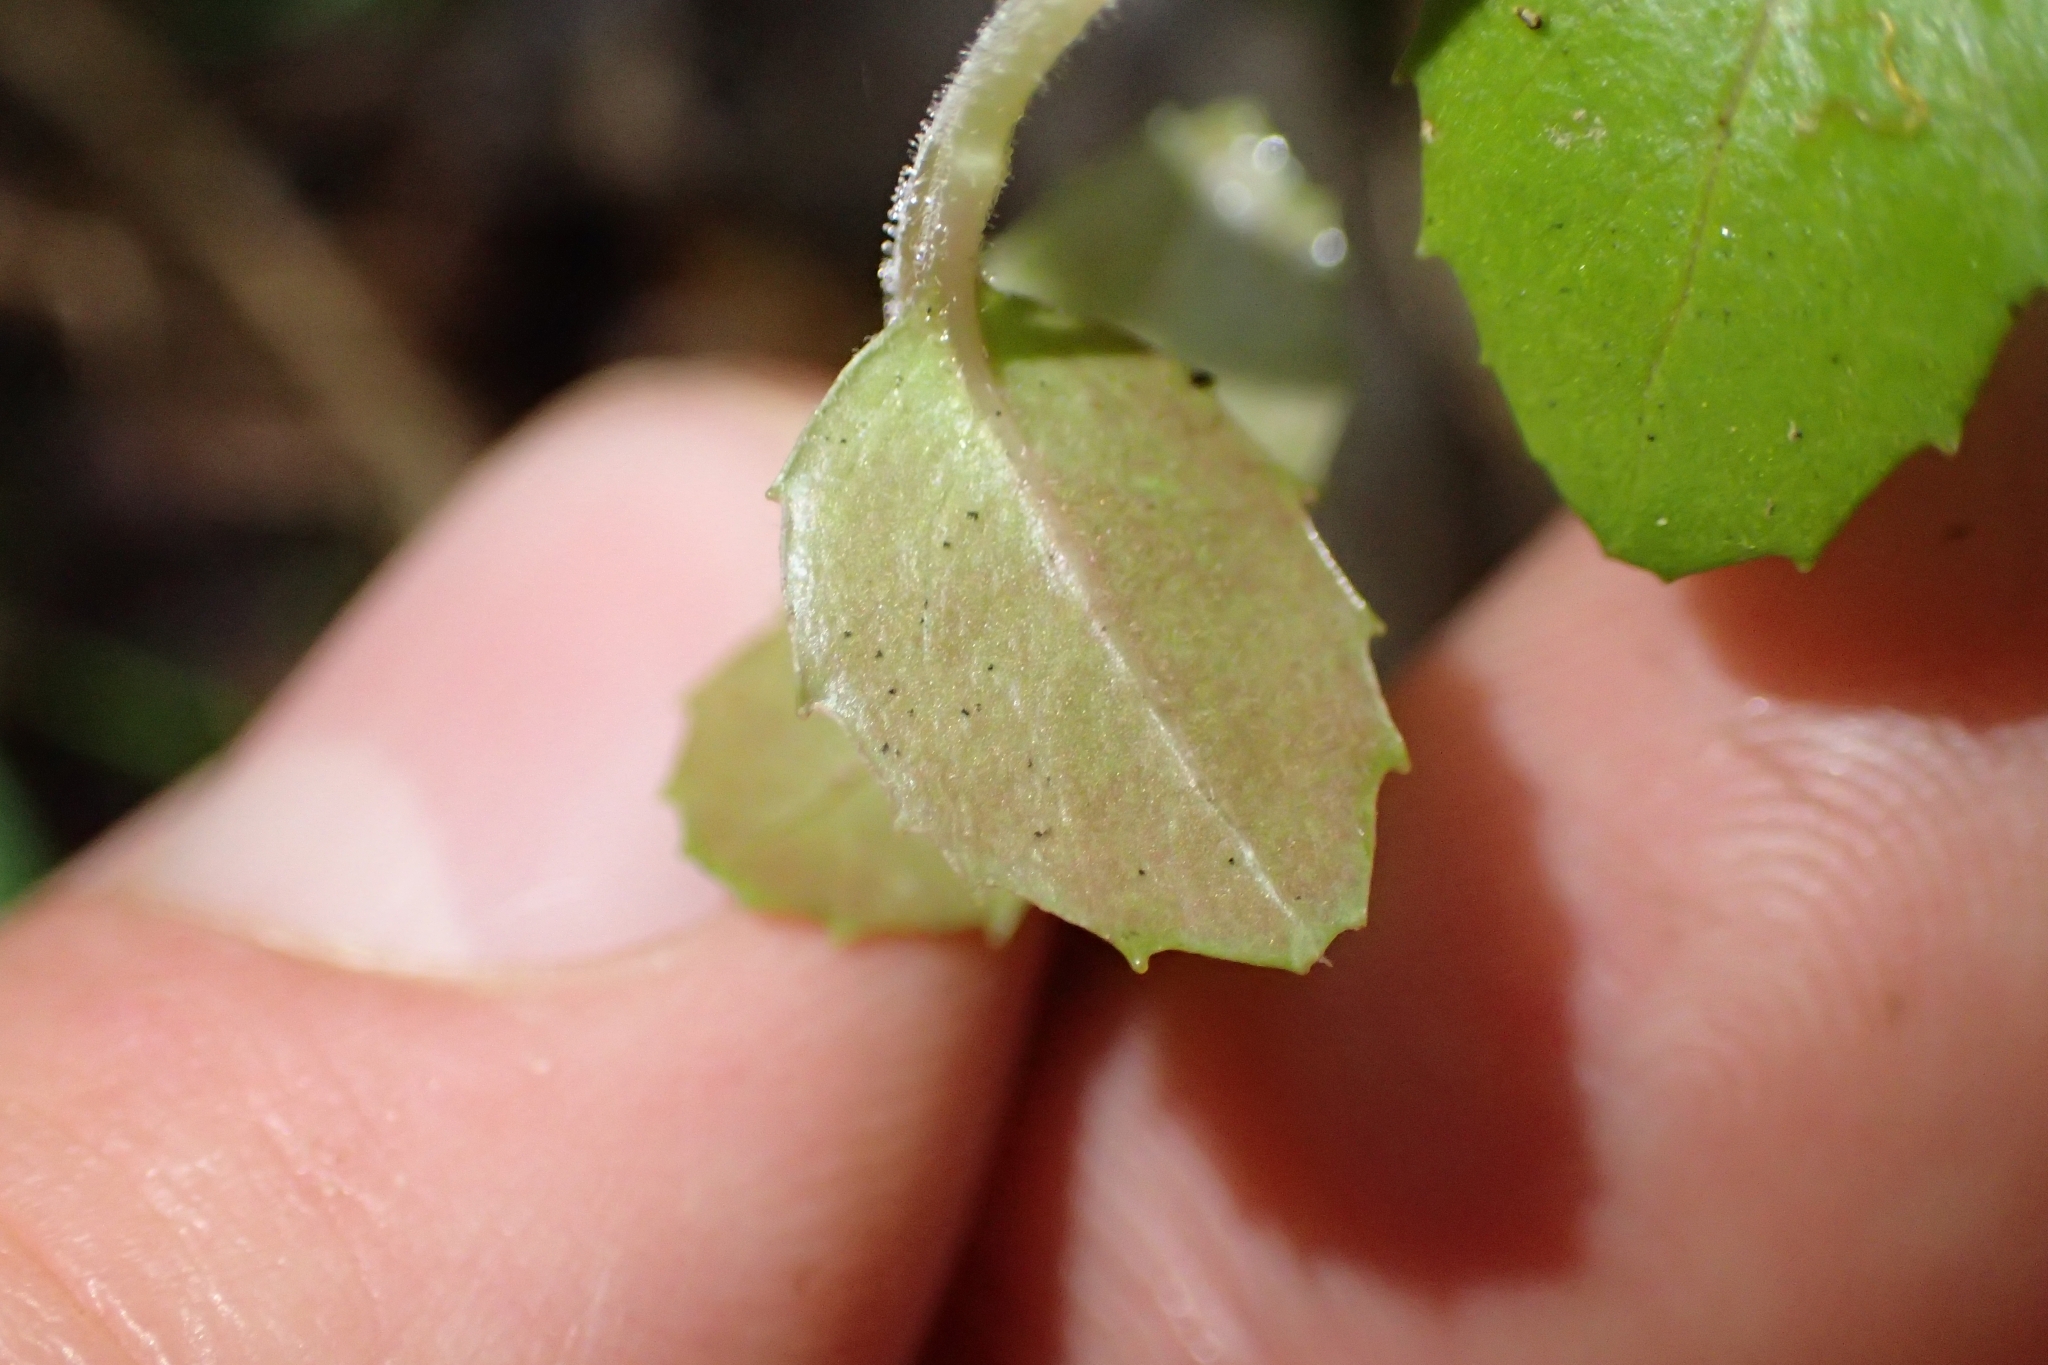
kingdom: Plantae
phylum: Tracheophyta
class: Magnoliopsida
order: Myrtales
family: Onagraceae
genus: Epilobium
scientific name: Epilobium rotundifolium
